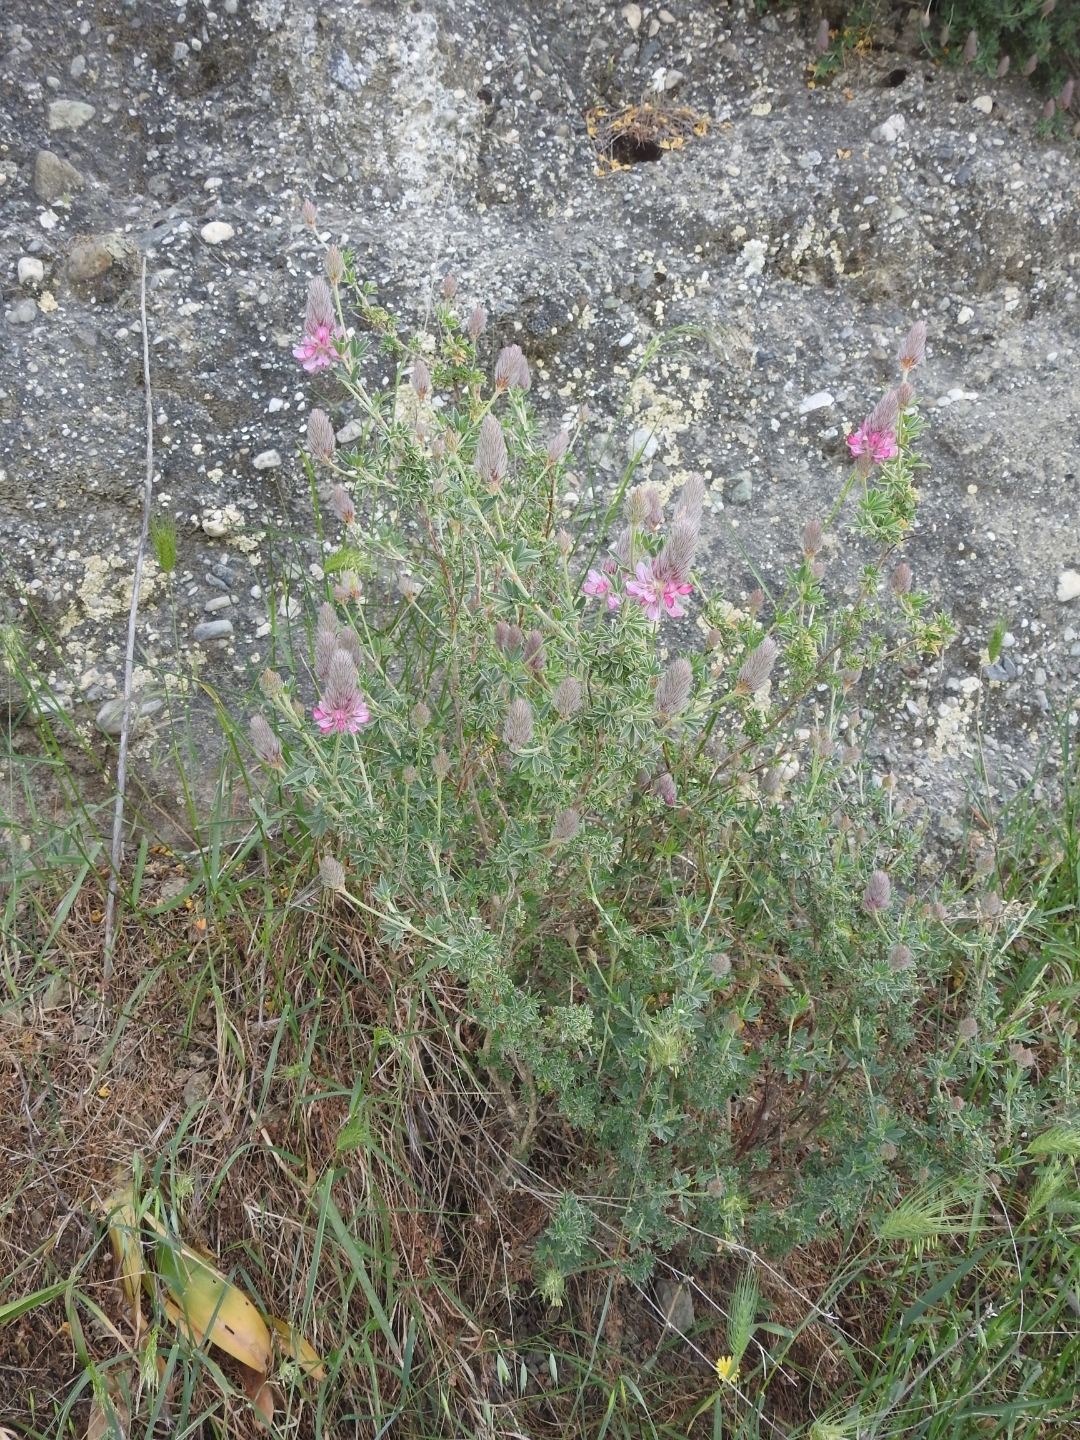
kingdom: Plantae
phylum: Tracheophyta
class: Magnoliopsida
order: Fabales
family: Fabaceae
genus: Ebenus
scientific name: Ebenus cretica
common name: Cretan silver bush
